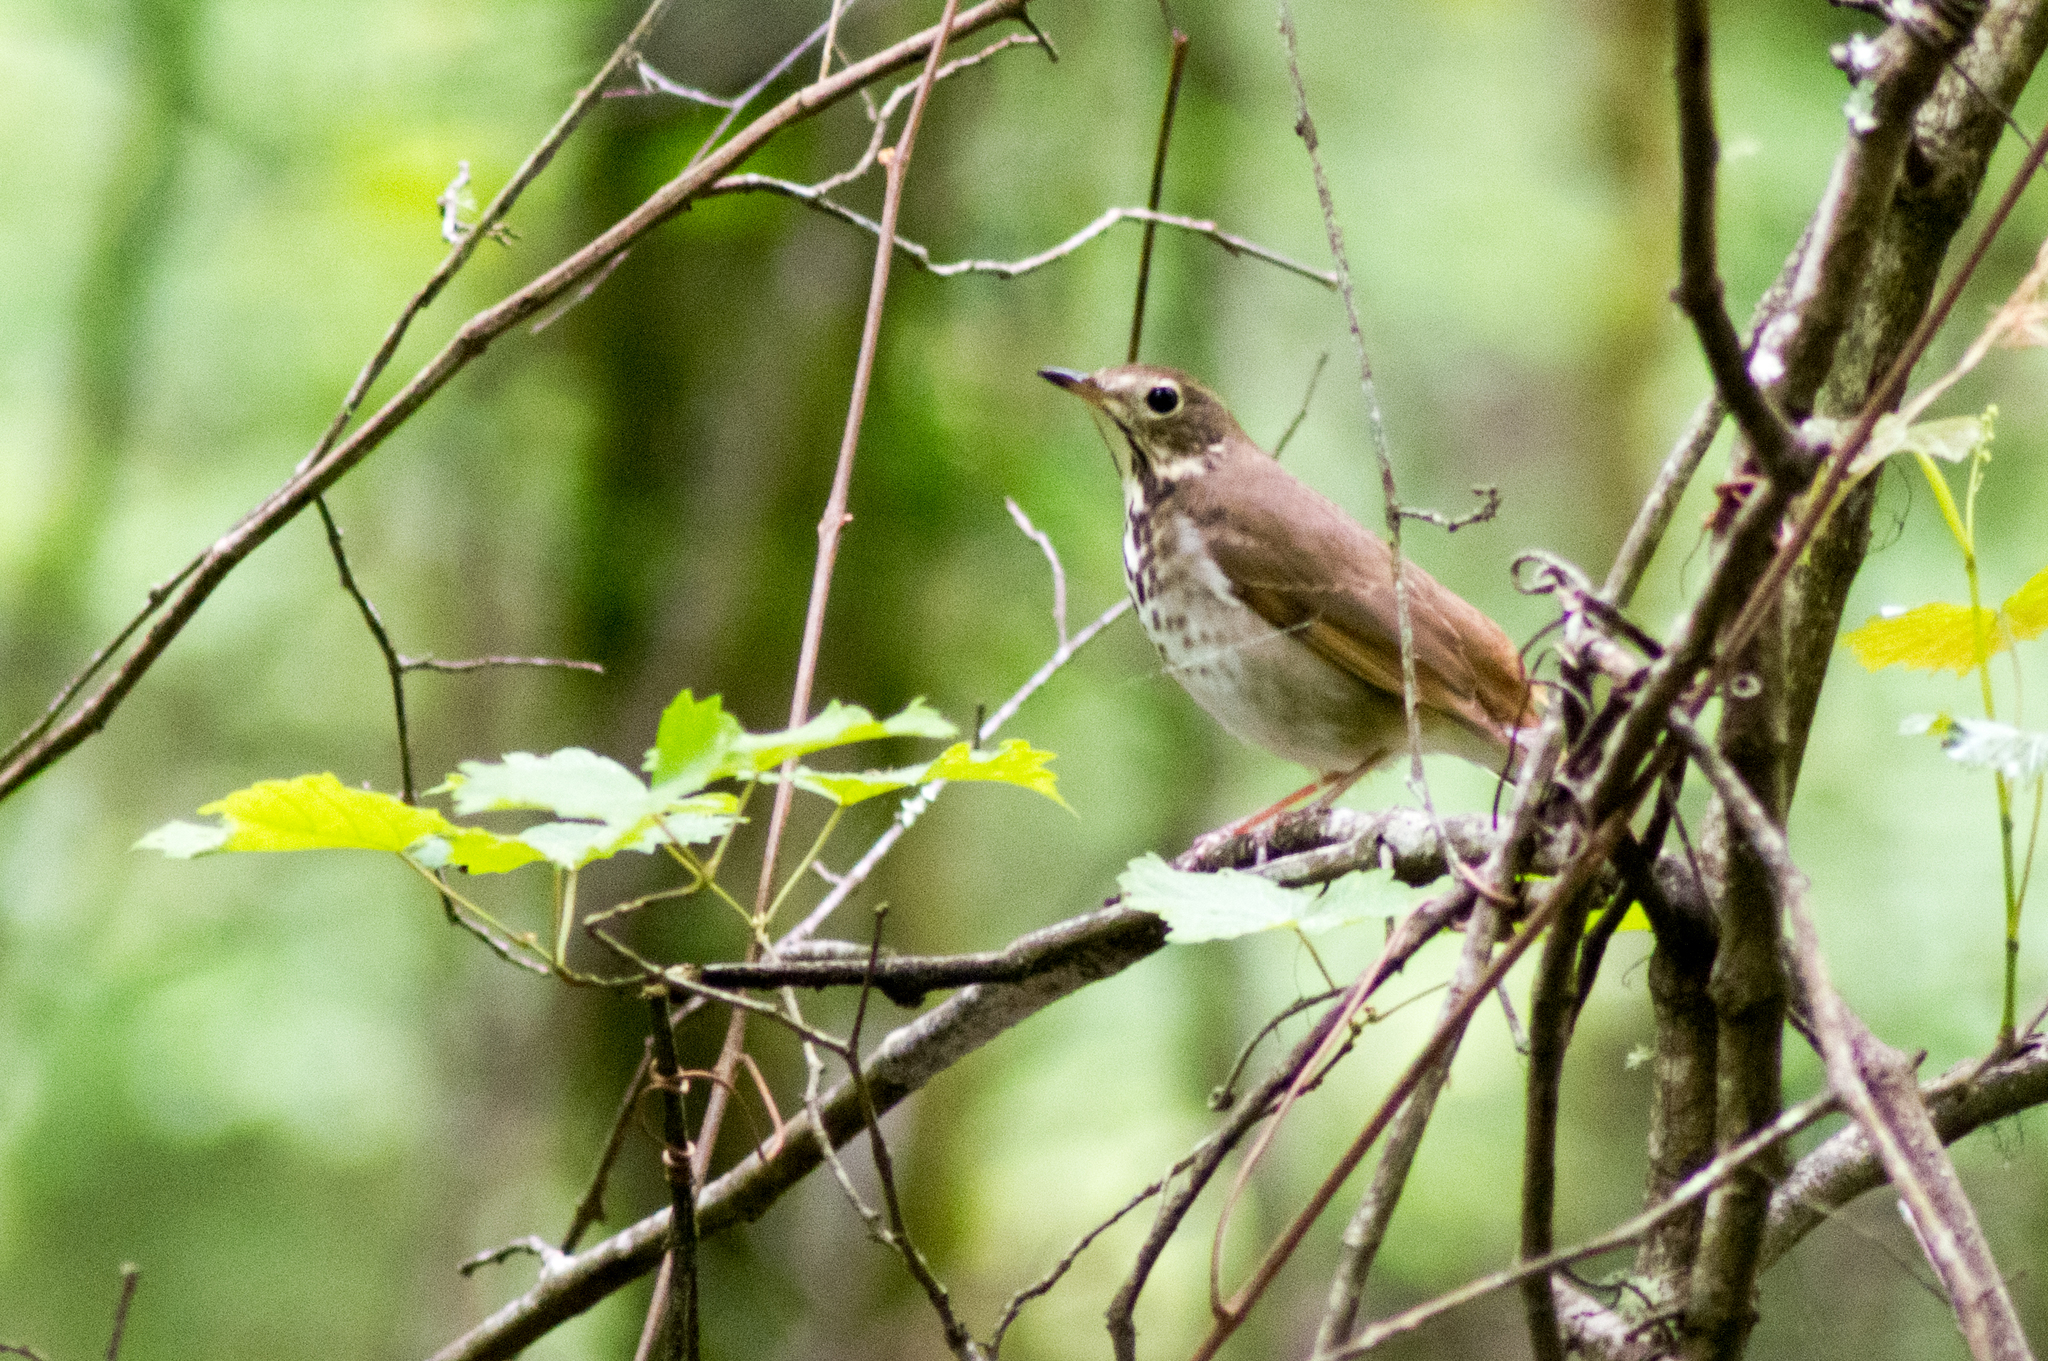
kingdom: Animalia
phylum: Chordata
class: Aves
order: Passeriformes
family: Turdidae
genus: Catharus
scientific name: Catharus guttatus
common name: Hermit thrush
